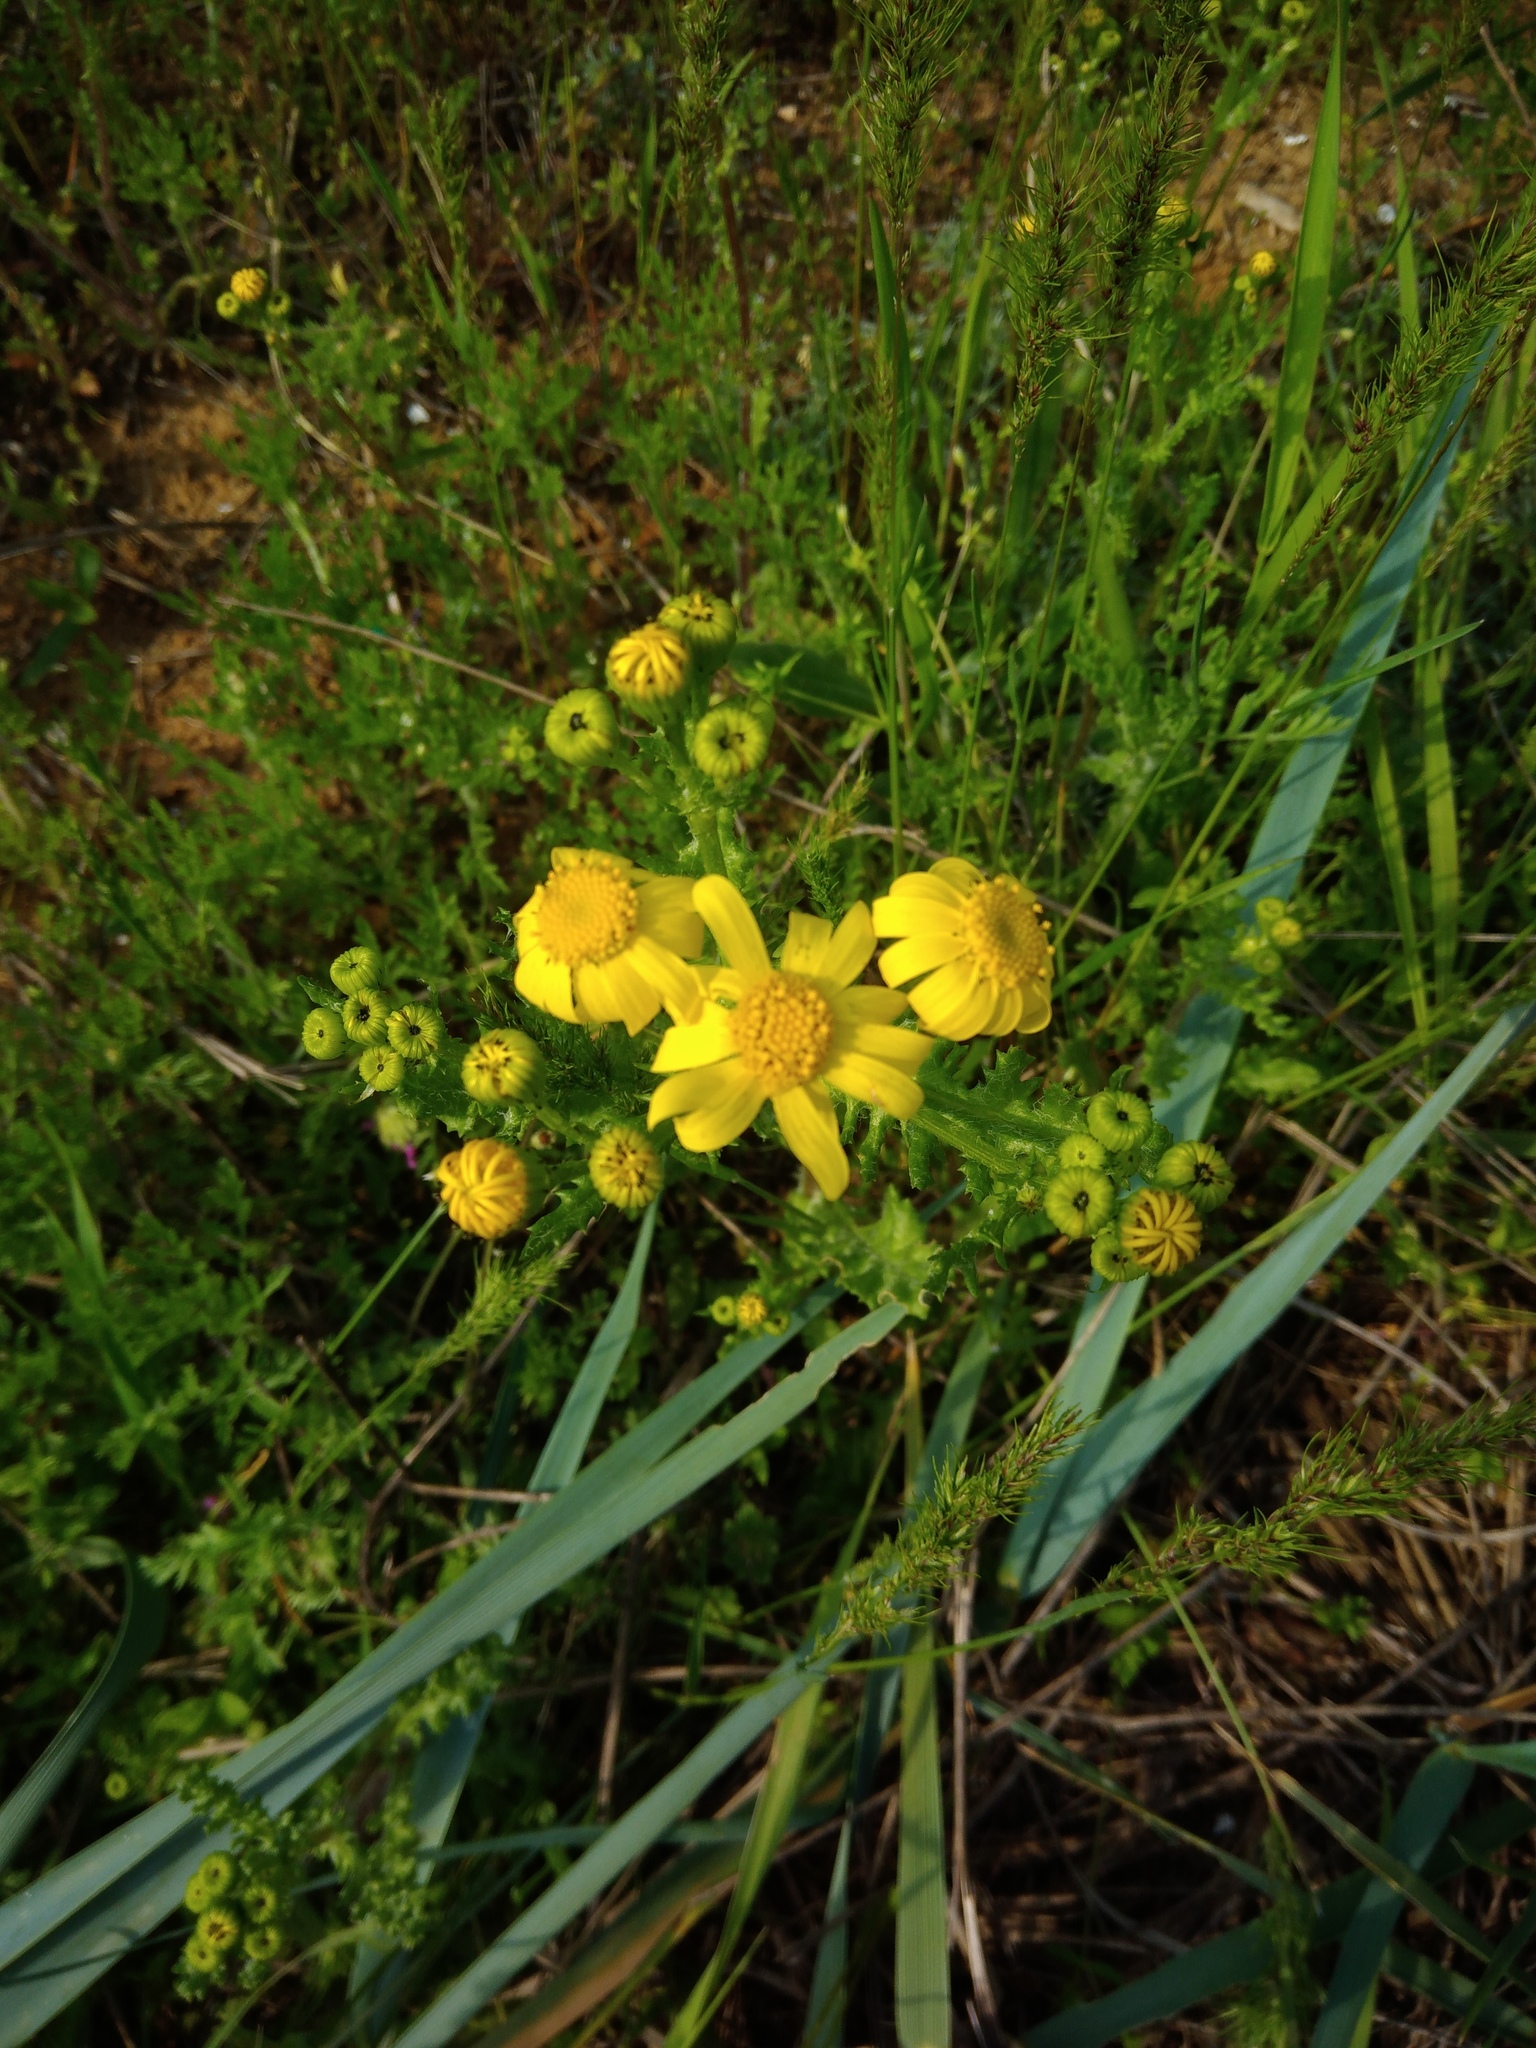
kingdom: Plantae
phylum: Tracheophyta
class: Magnoliopsida
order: Asterales
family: Asteraceae
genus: Senecio
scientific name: Senecio vernalis
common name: Eastern groundsel
